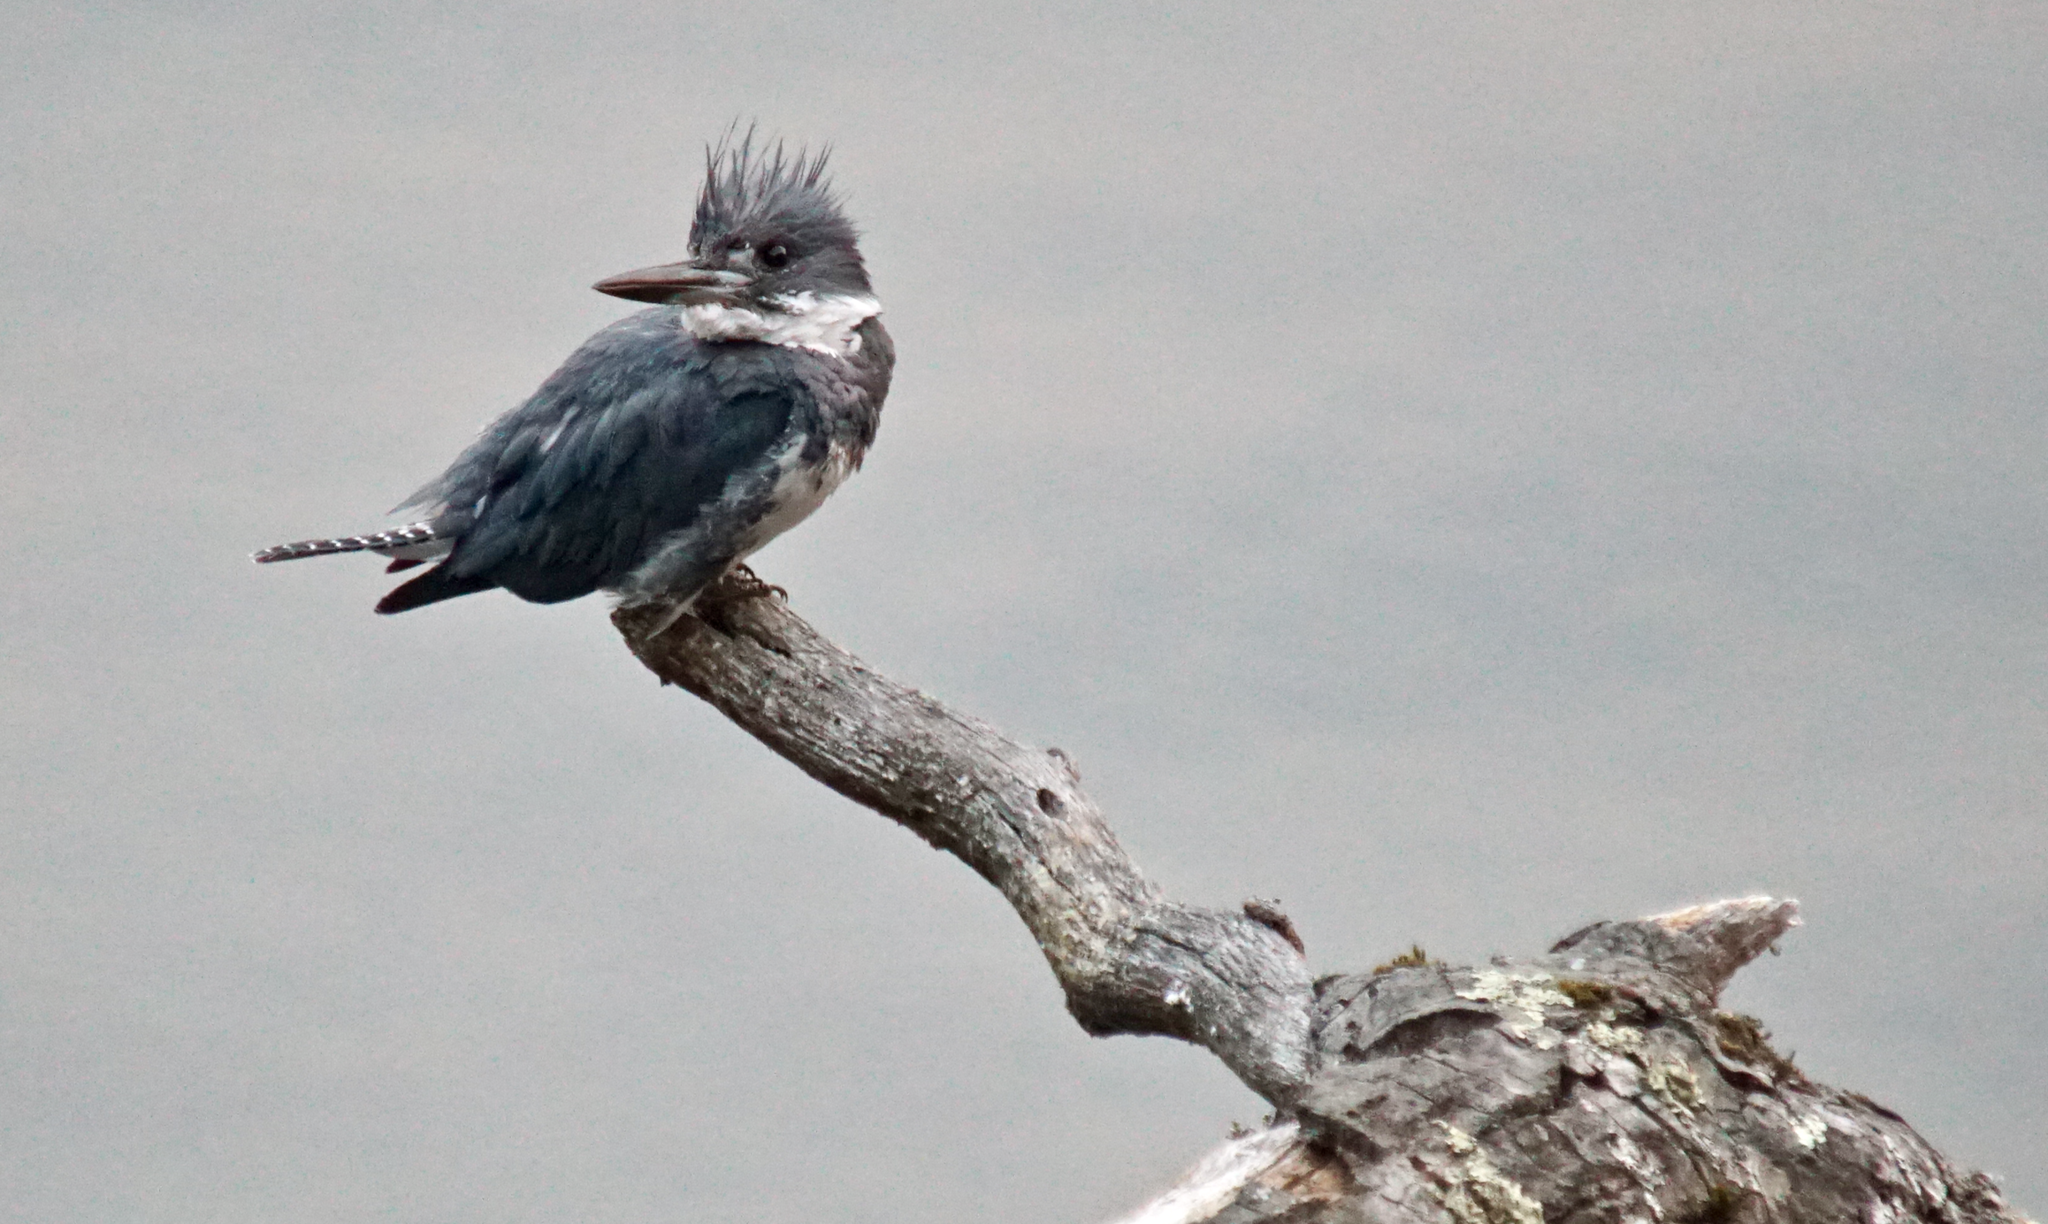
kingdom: Animalia
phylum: Chordata
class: Aves
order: Coraciiformes
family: Alcedinidae
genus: Megaceryle
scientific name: Megaceryle alcyon
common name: Belted kingfisher
